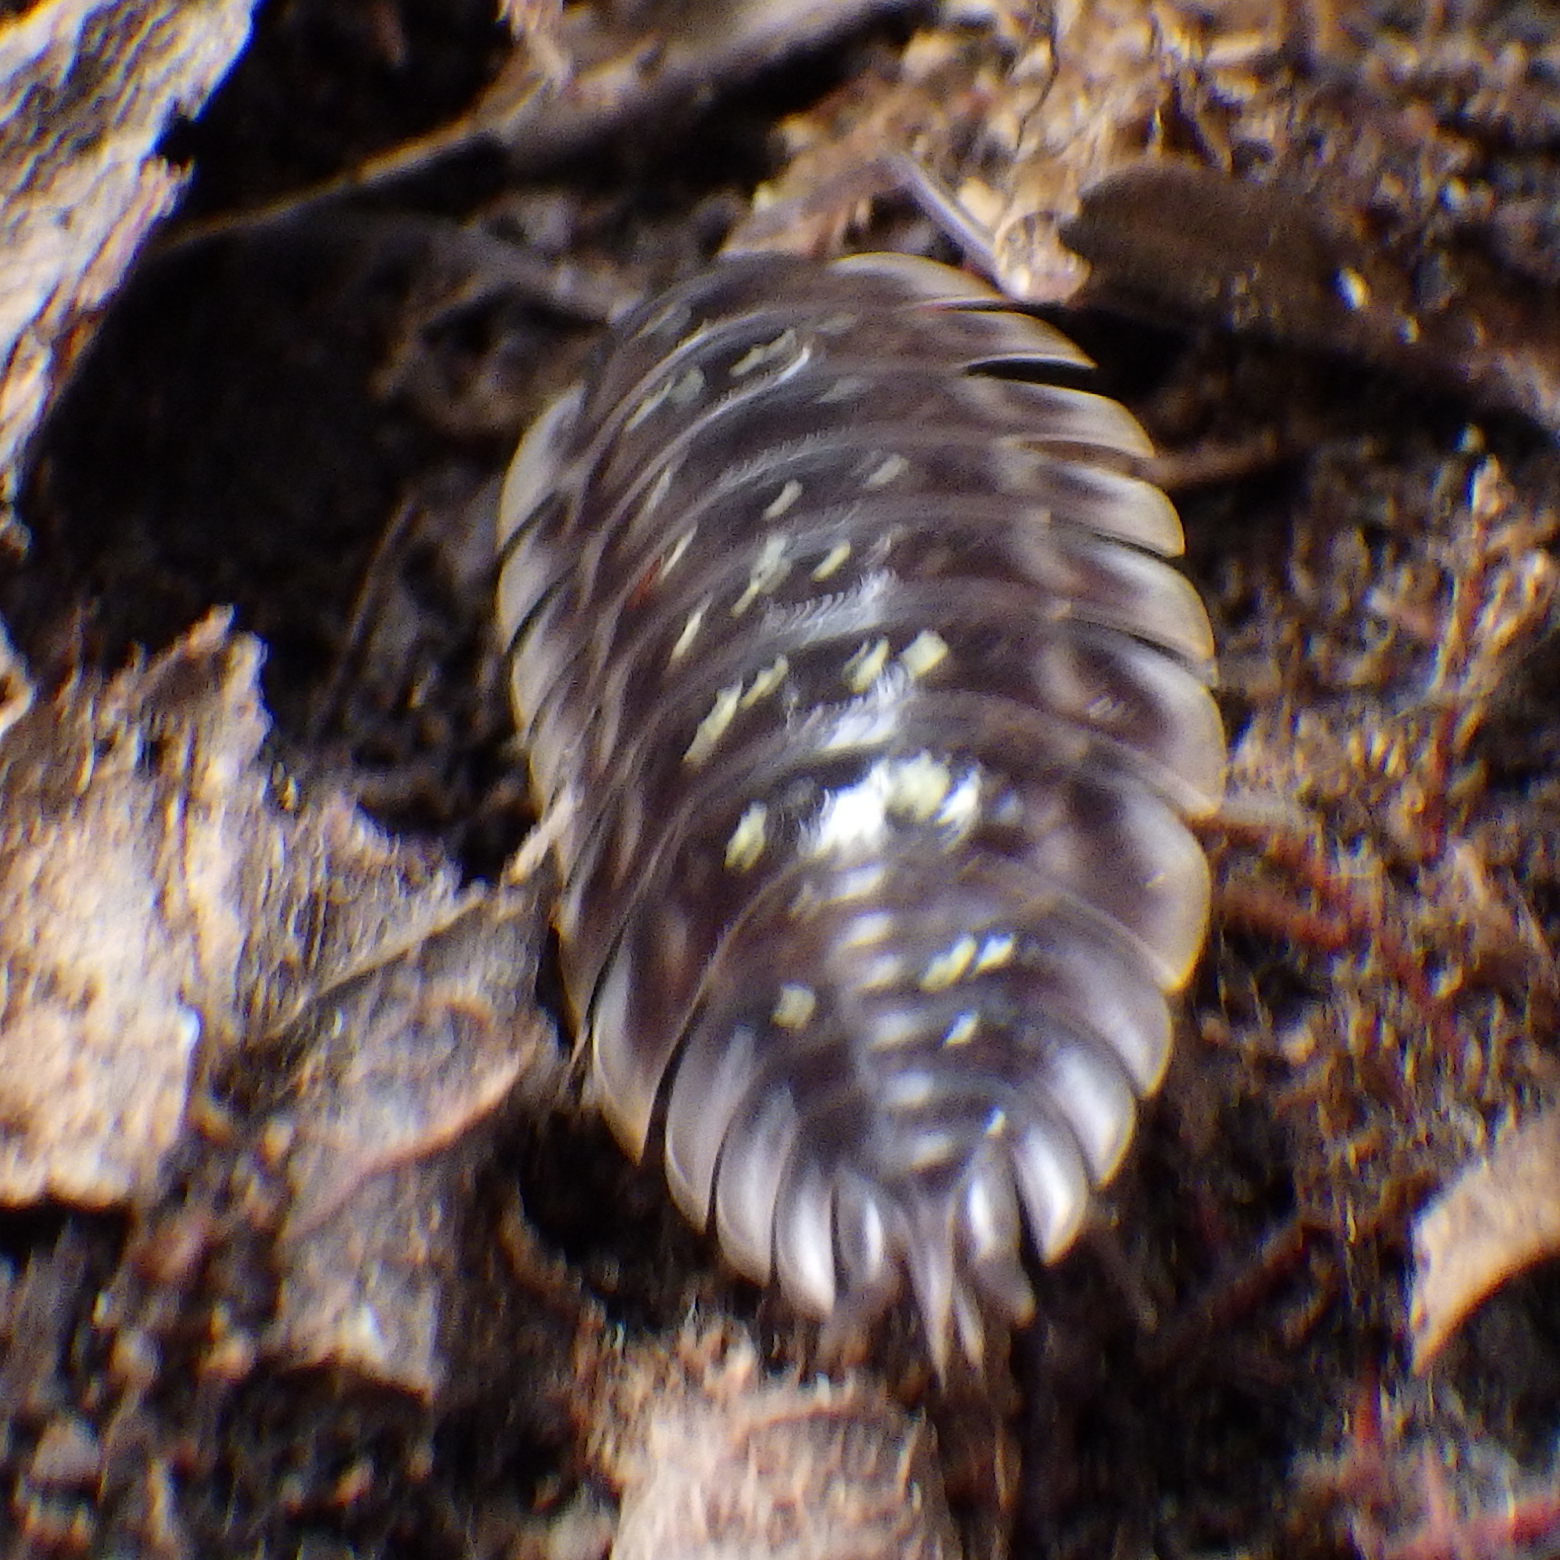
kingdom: Animalia
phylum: Arthropoda
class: Malacostraca
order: Isopoda
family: Oniscidae
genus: Oniscus
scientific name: Oniscus asellus
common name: Common shiny woodlouse
